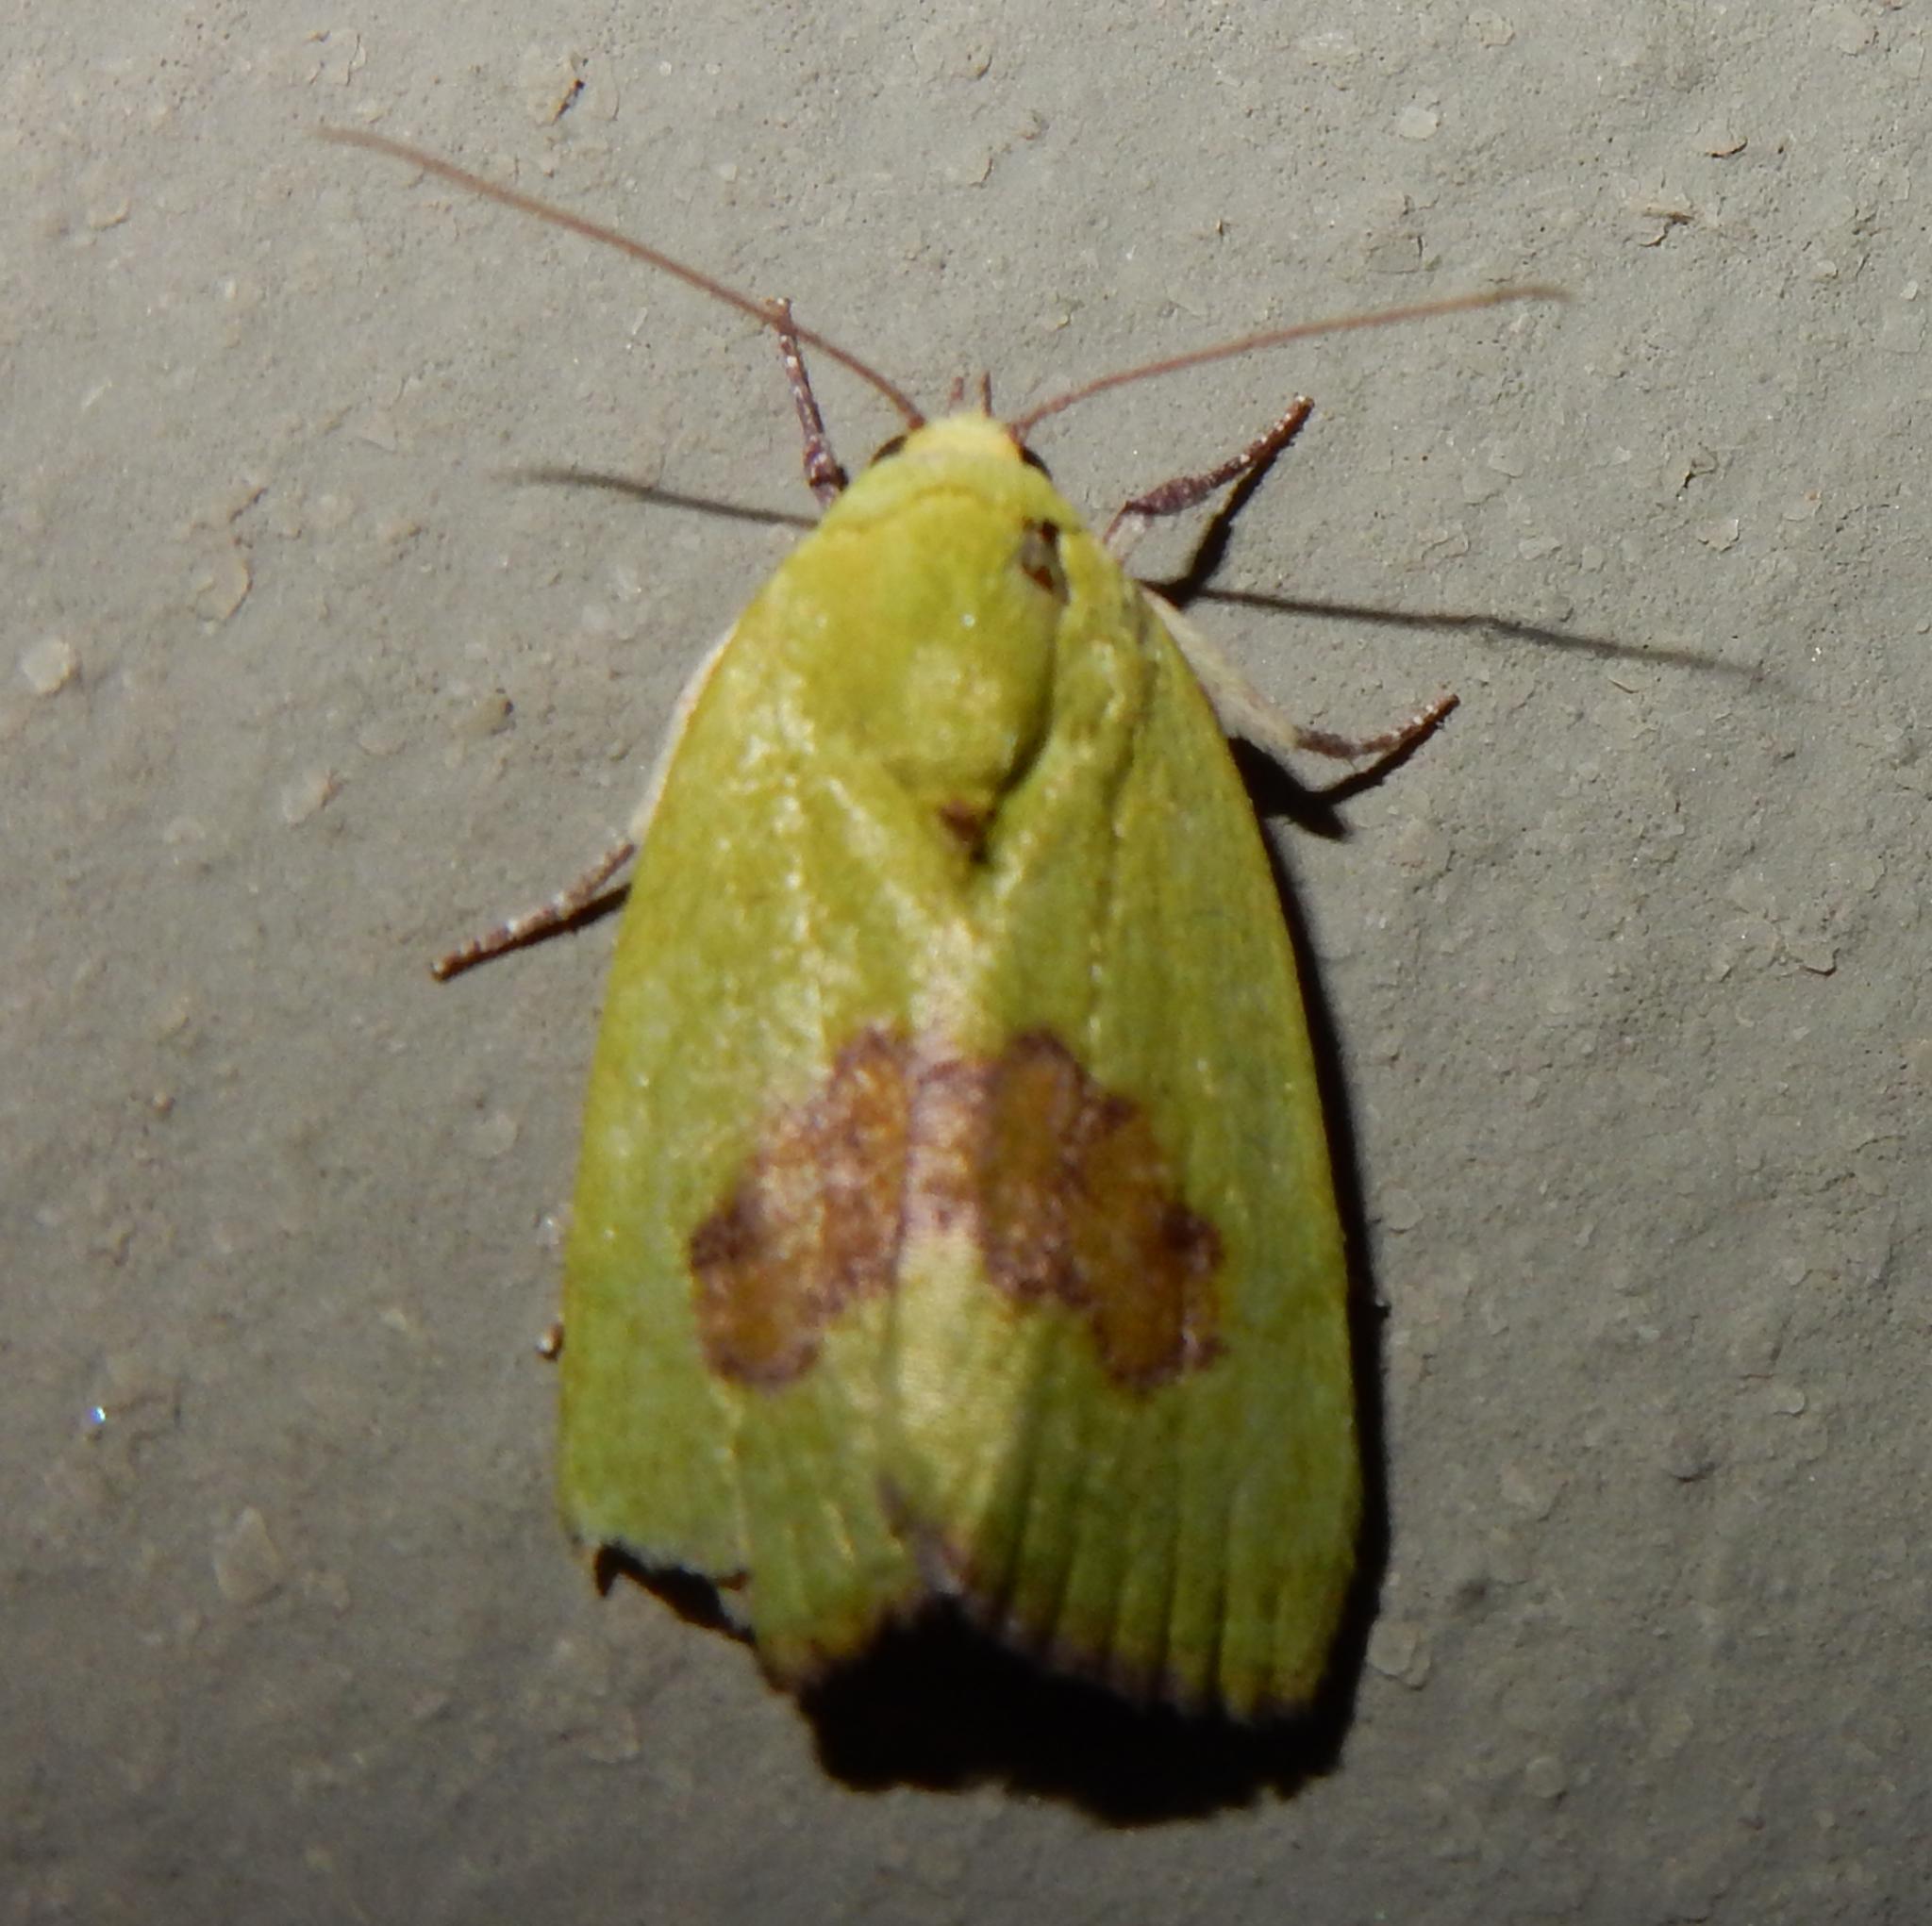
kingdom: Animalia
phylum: Arthropoda
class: Insecta
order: Lepidoptera
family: Nolidae
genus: Earias
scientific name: Earias biplaga
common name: Spiny bollworm
